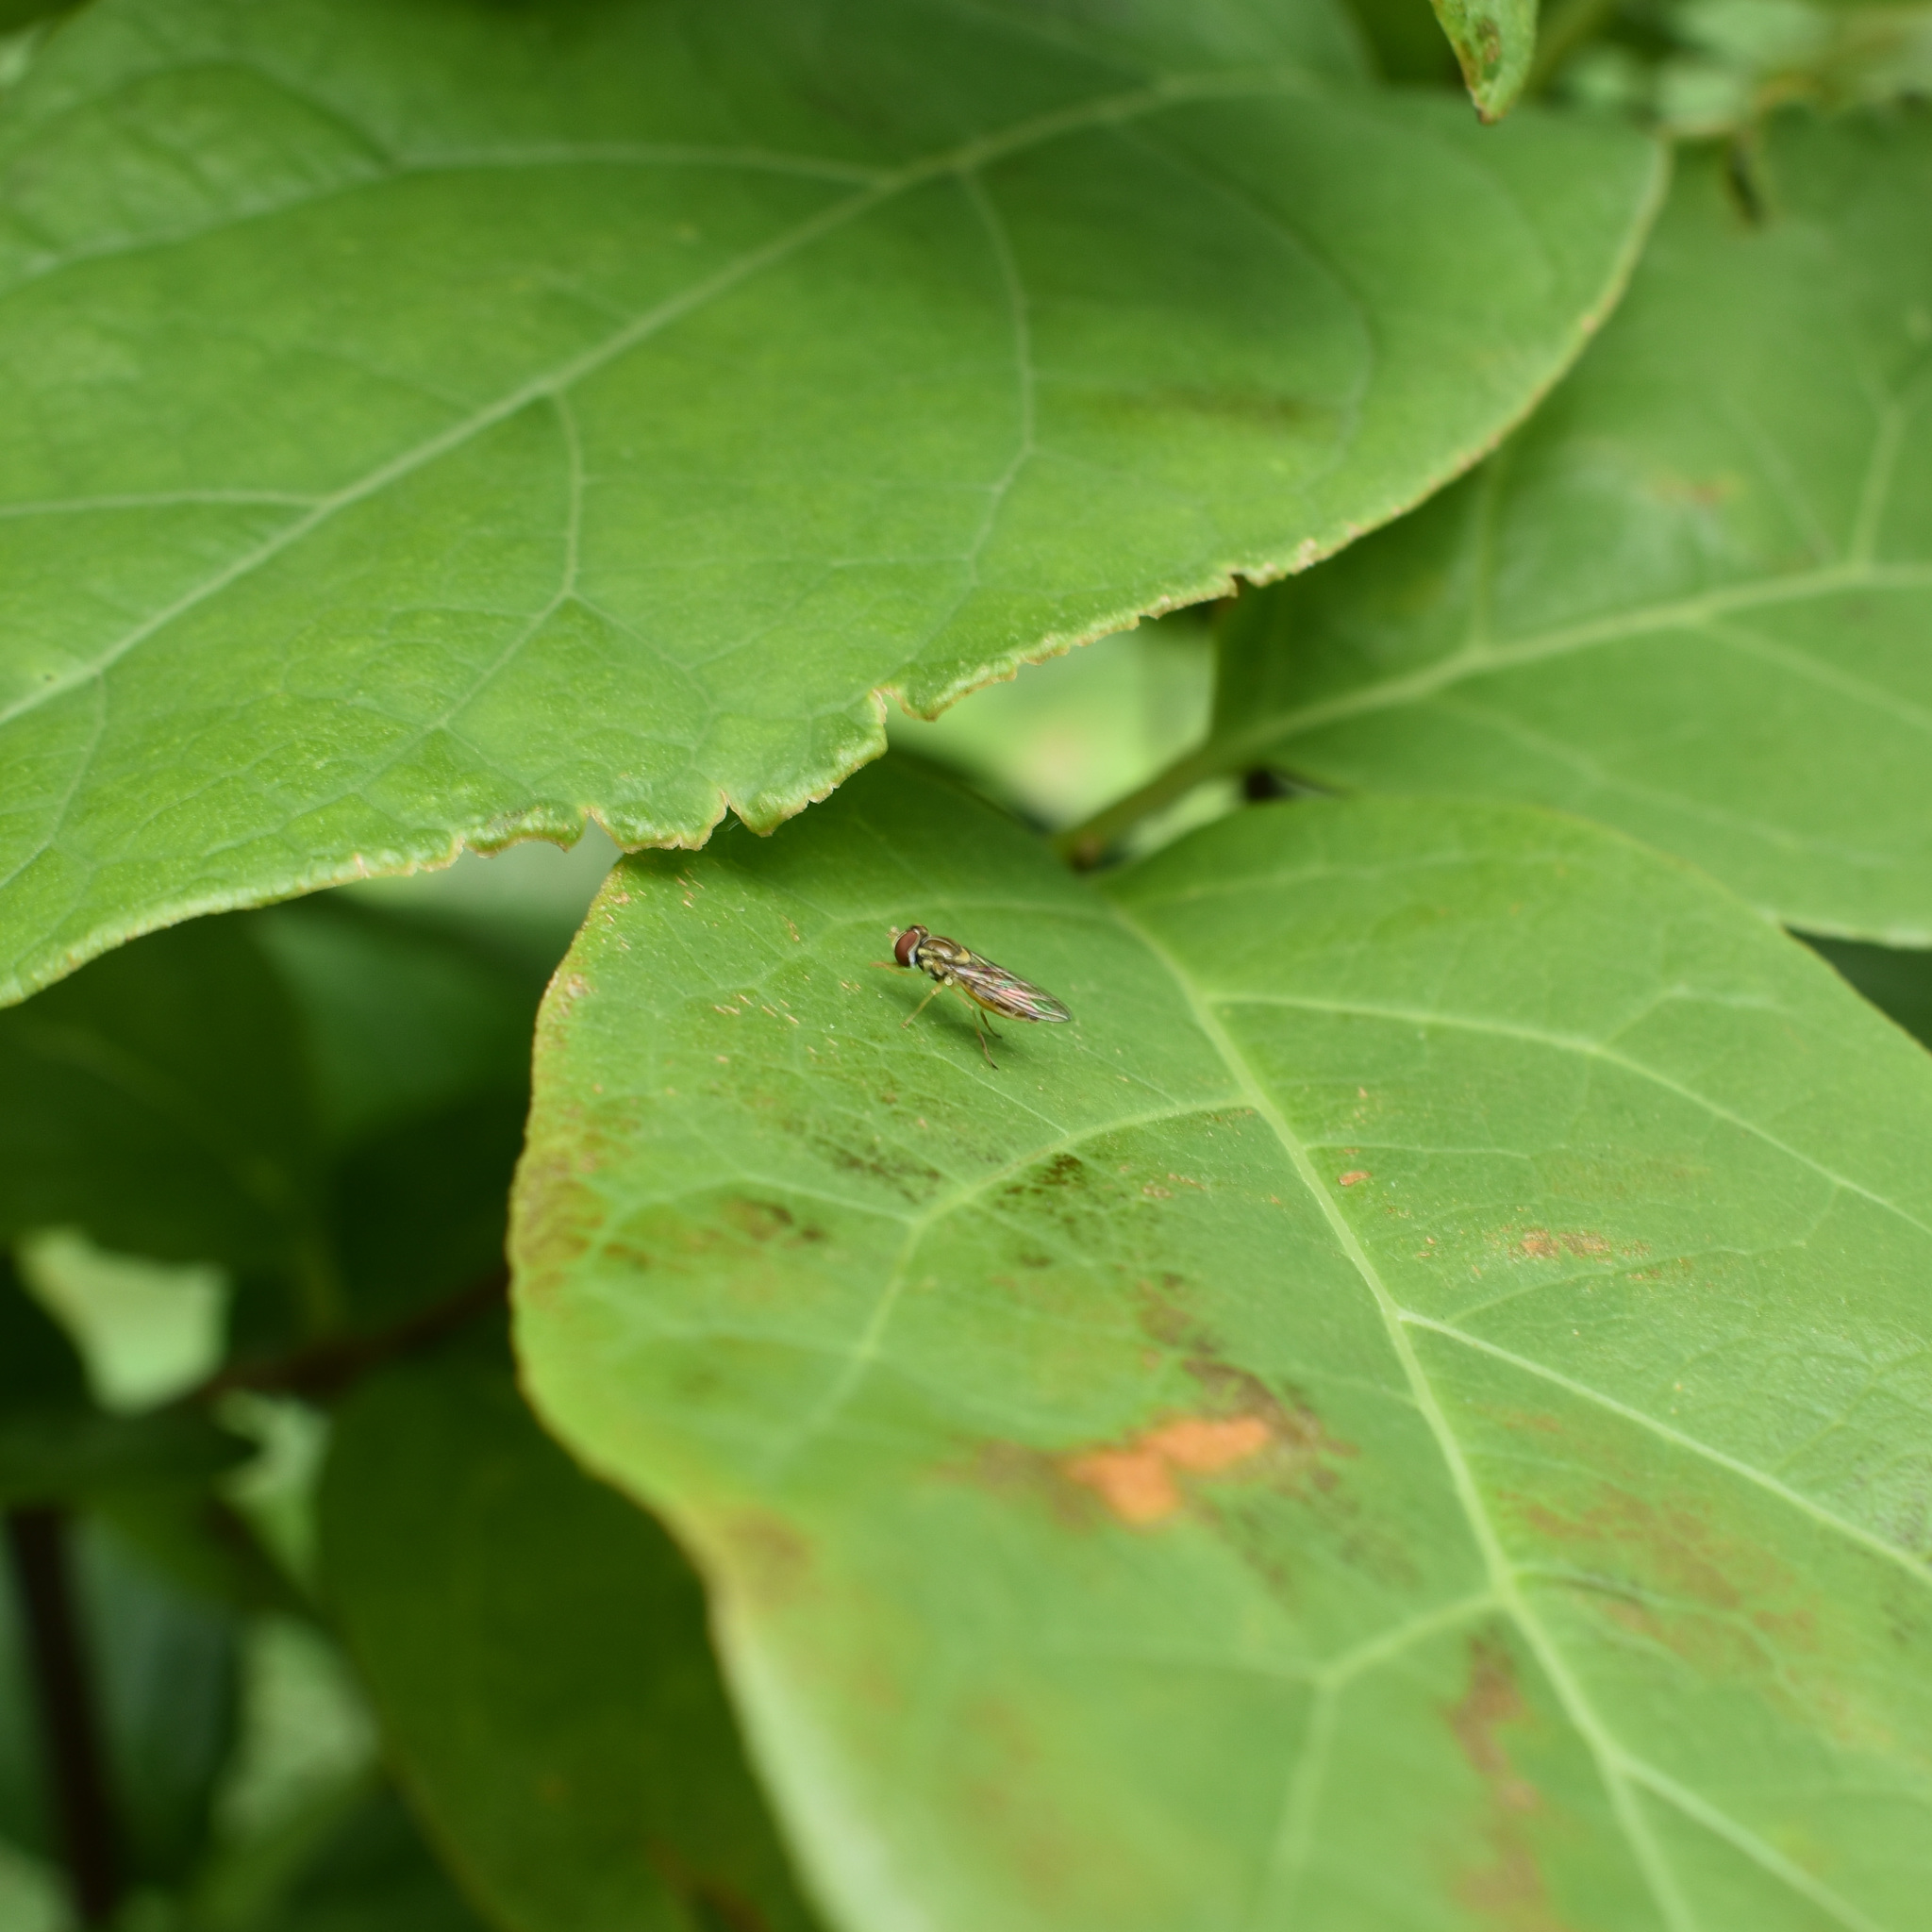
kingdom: Animalia
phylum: Arthropoda
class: Insecta
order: Diptera
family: Syrphidae
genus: Toxomerus
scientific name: Toxomerus marginatus
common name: Syrphid fly
